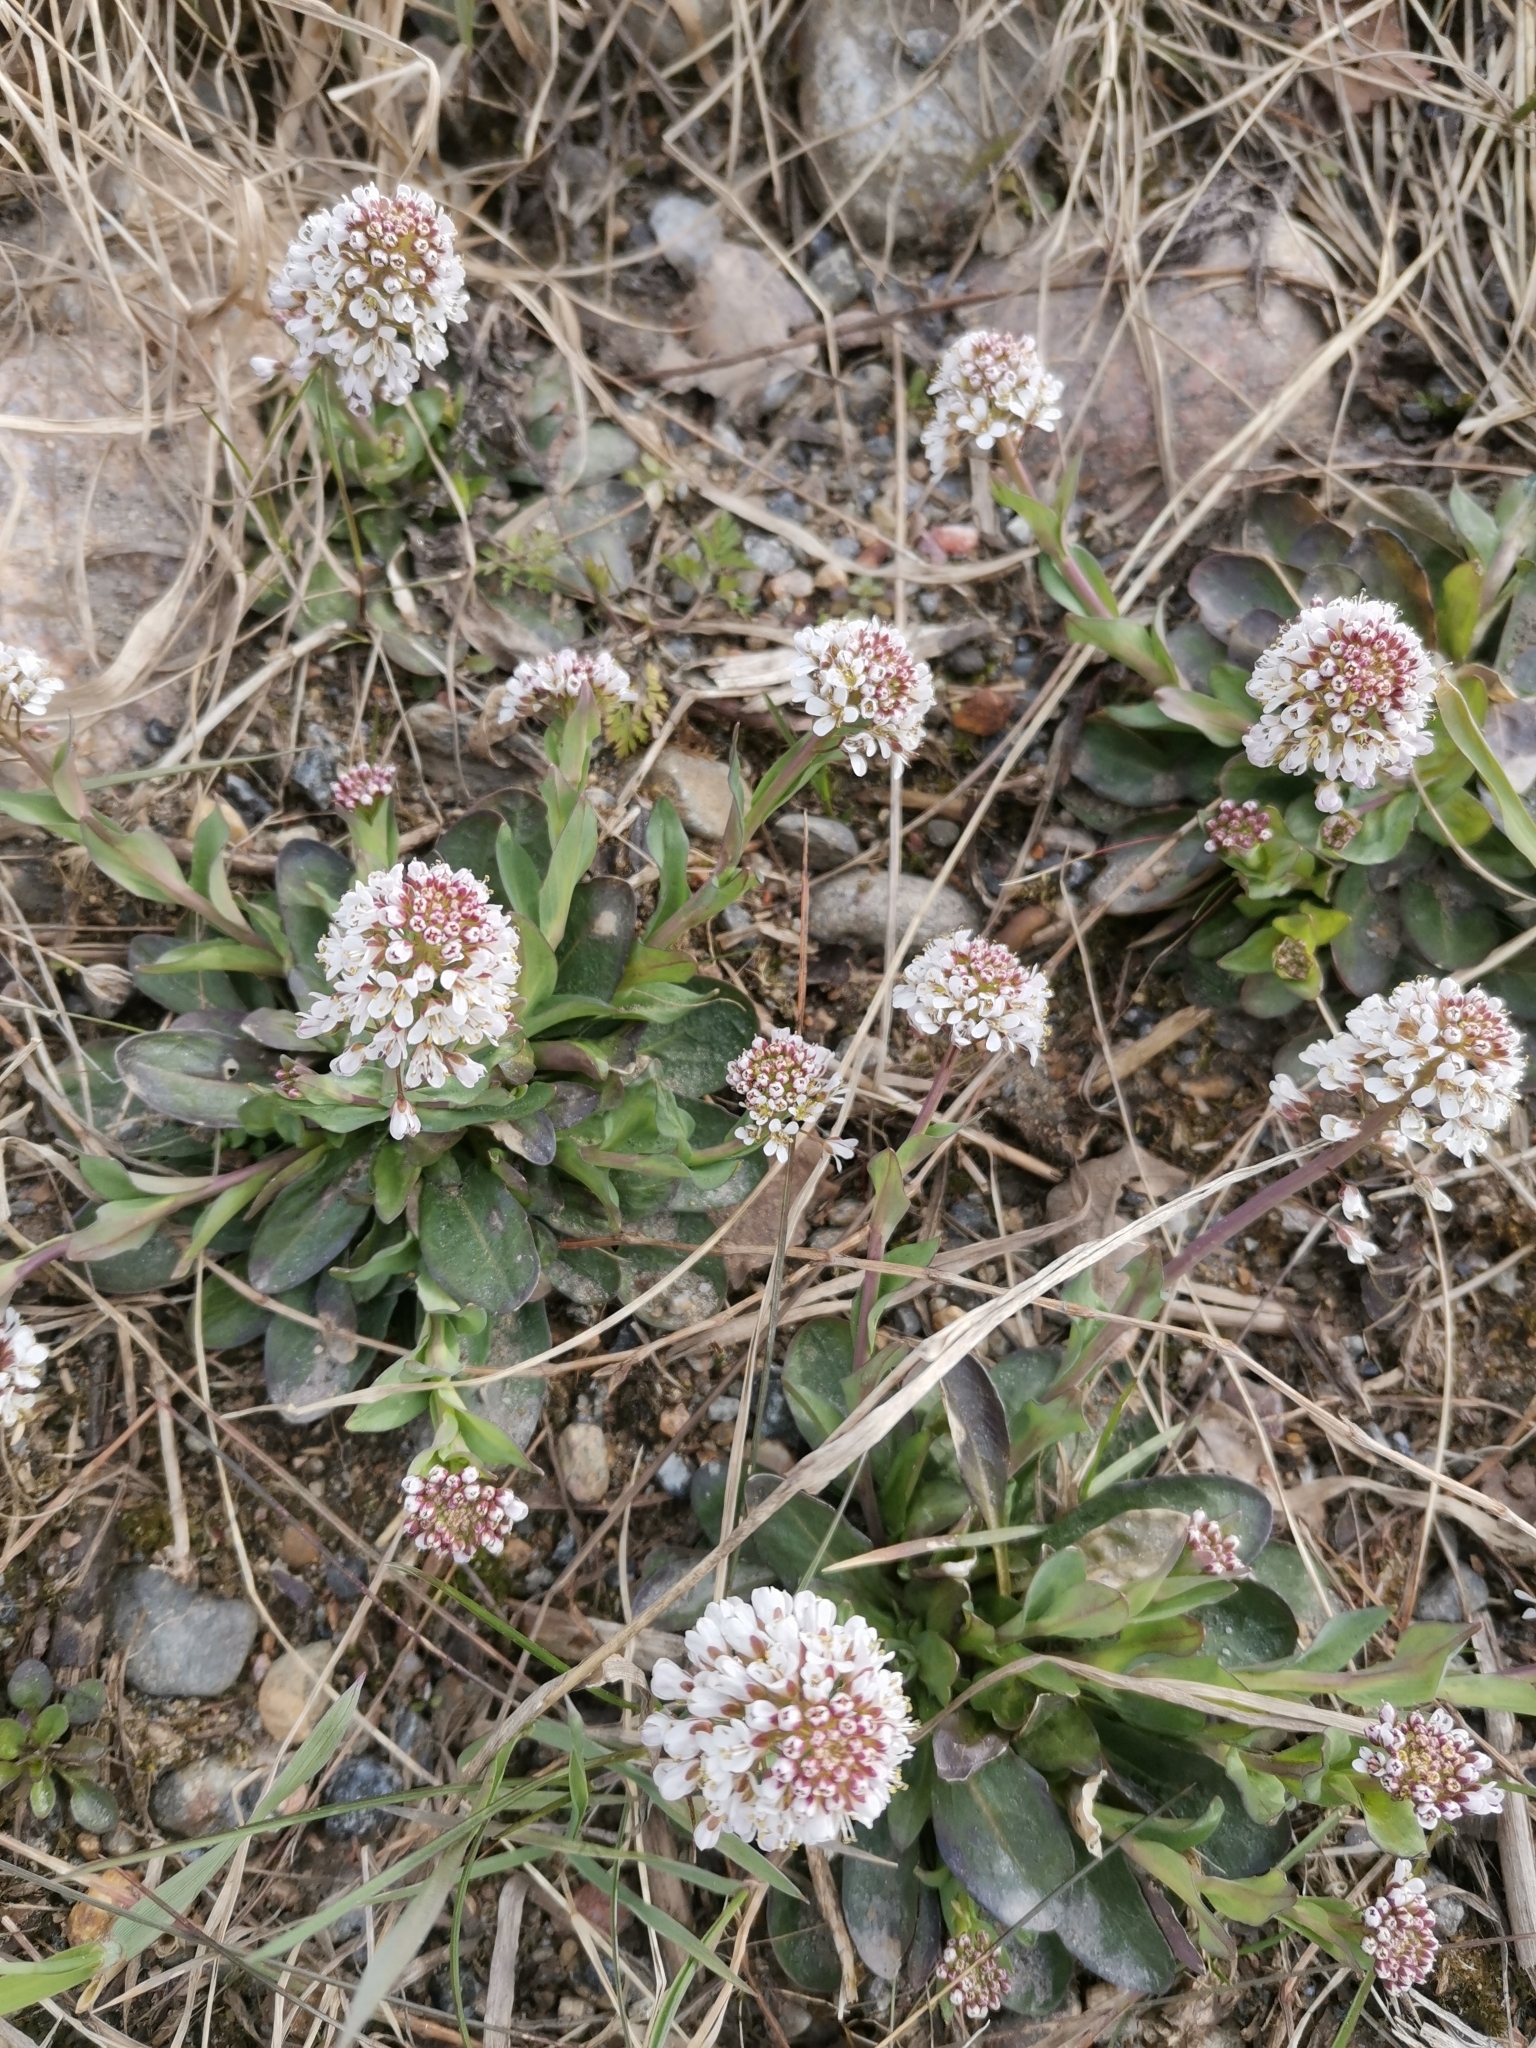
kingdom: Plantae
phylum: Tracheophyta
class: Magnoliopsida
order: Brassicales
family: Brassicaceae
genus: Noccaea
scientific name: Noccaea caerulescens
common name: Alpine pennycress
